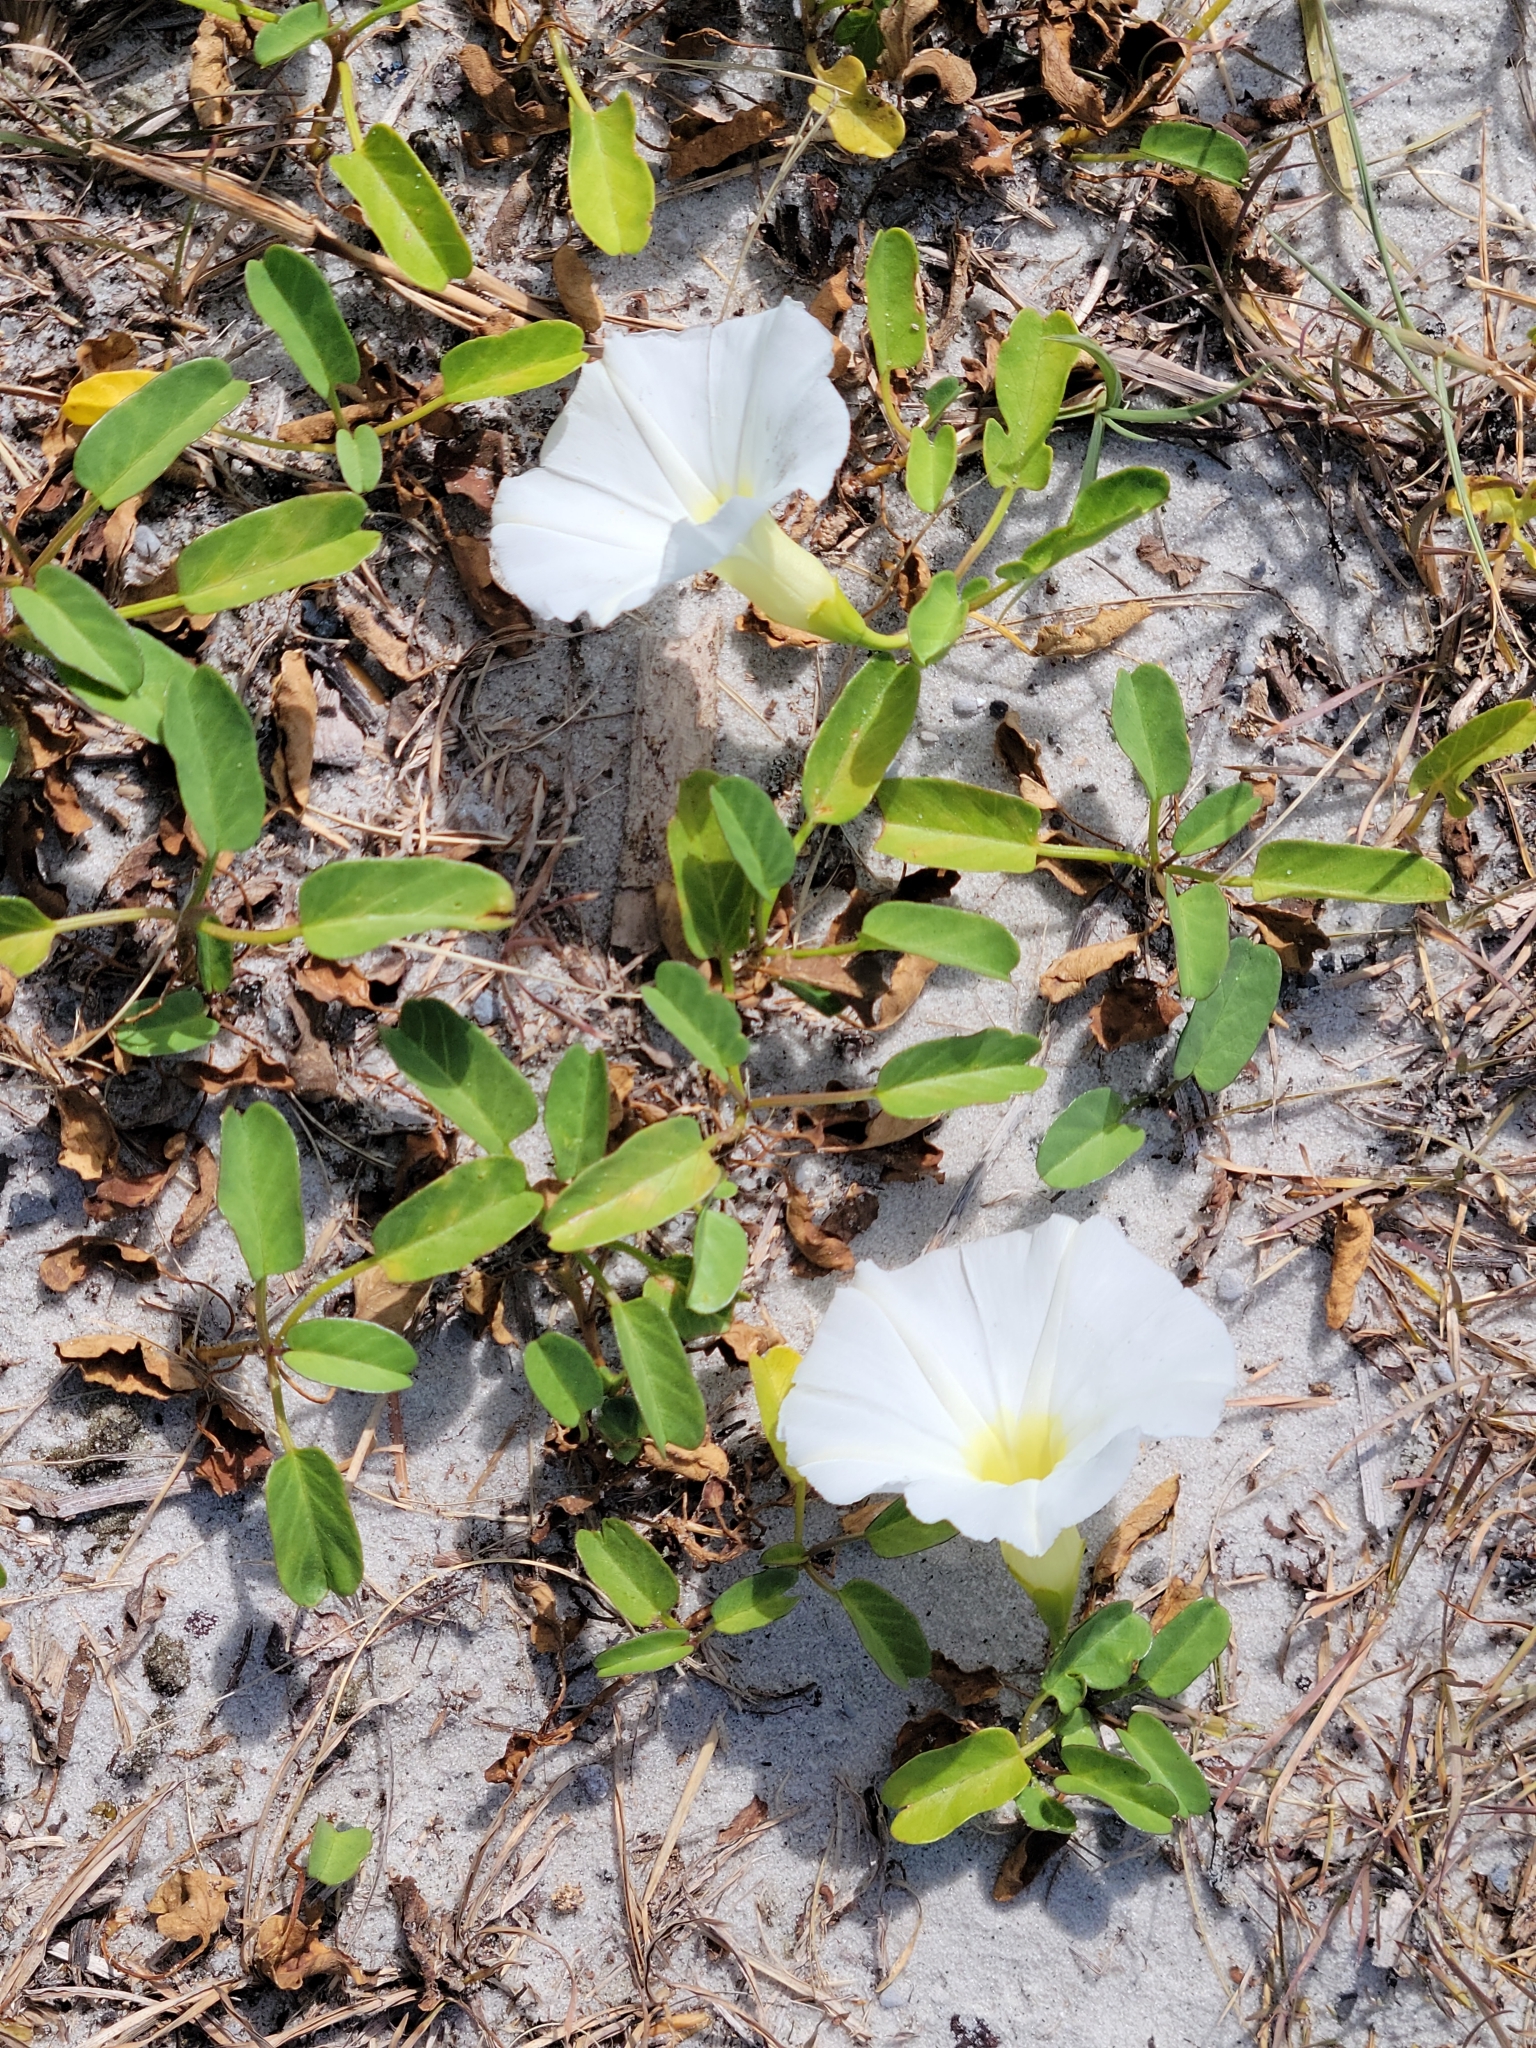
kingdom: Plantae
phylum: Tracheophyta
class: Magnoliopsida
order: Solanales
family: Convolvulaceae
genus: Ipomoea
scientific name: Ipomoea imperati
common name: Fiddle-leaf morning-glory
